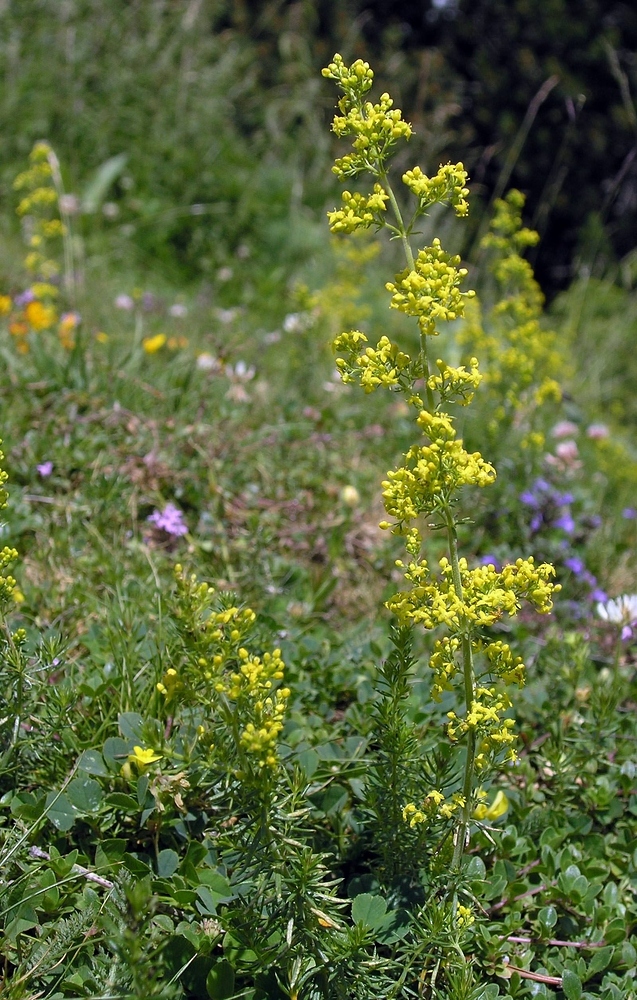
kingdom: Plantae
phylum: Tracheophyta
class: Magnoliopsida
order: Gentianales
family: Rubiaceae
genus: Galium
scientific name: Galium verum
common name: Lady's bedstraw
